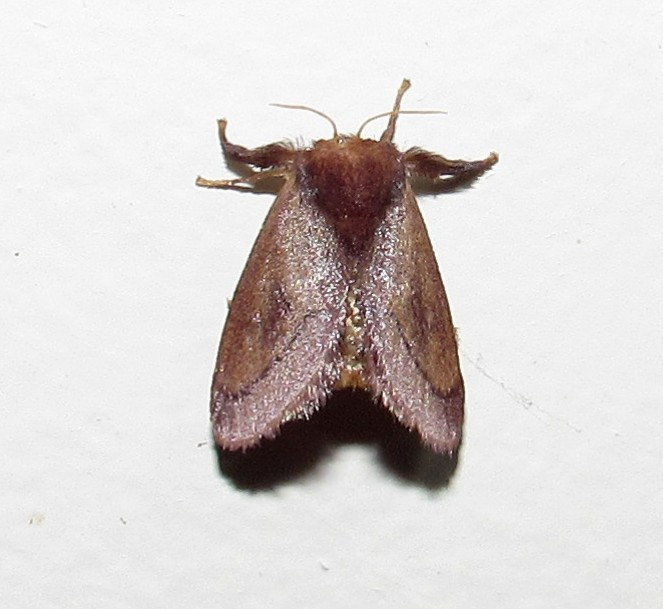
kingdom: Animalia
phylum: Arthropoda
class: Insecta
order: Lepidoptera
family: Limacodidae
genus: Talima
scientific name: Talima postica
